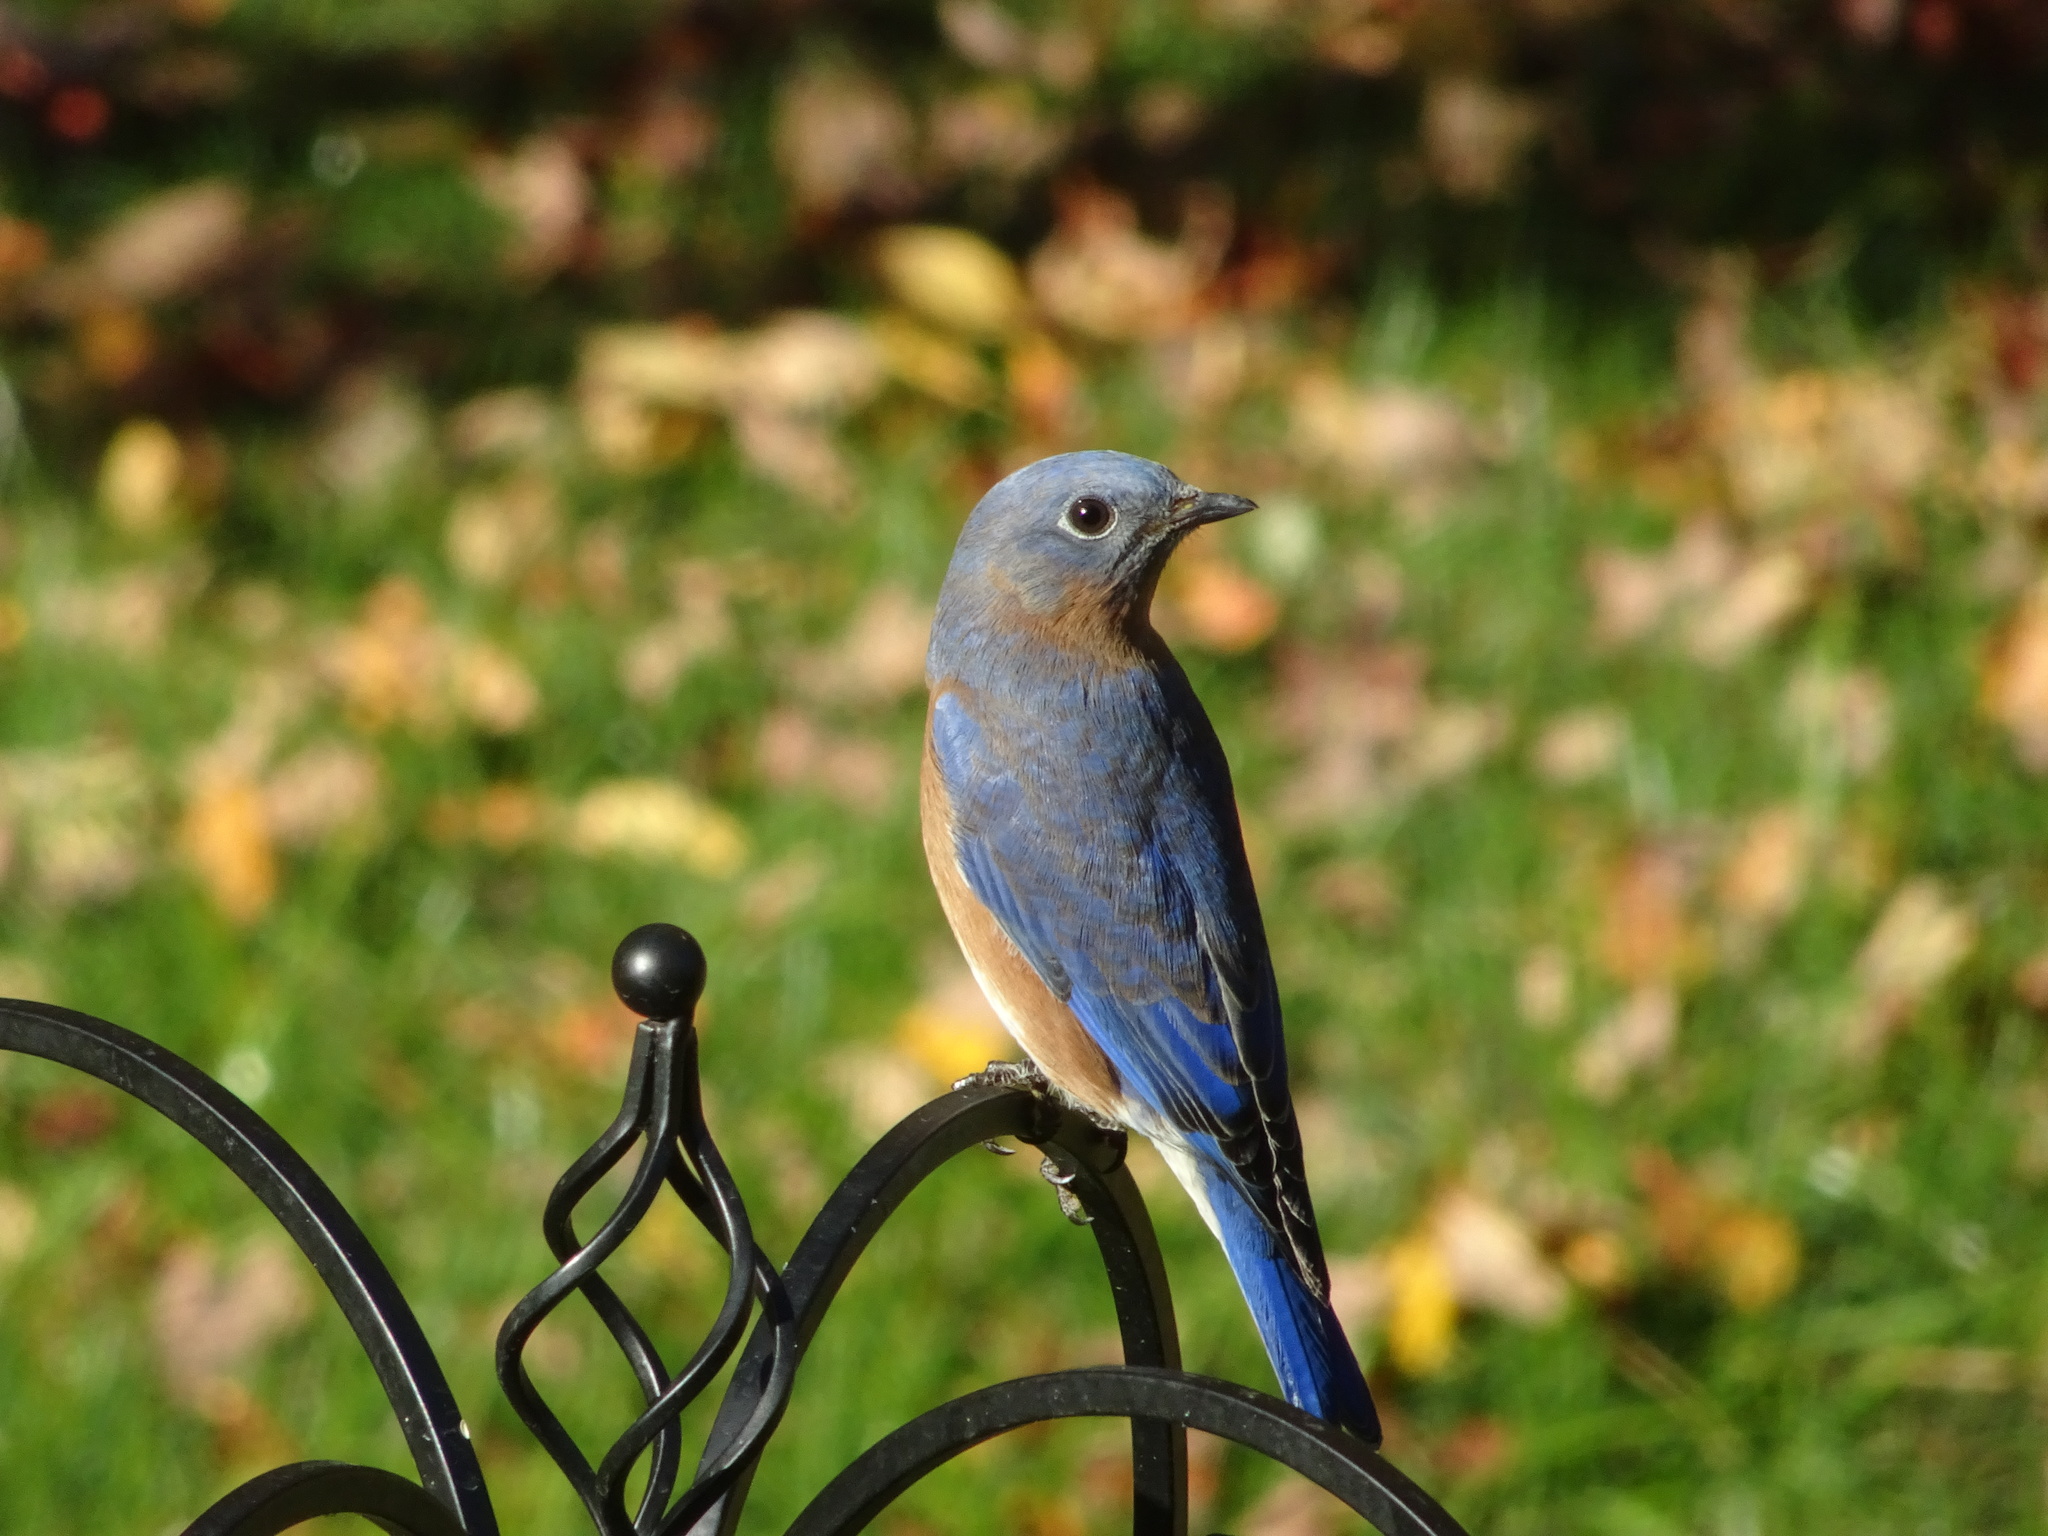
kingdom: Animalia
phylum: Chordata
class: Aves
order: Passeriformes
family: Turdidae
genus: Sialia
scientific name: Sialia sialis
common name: Eastern bluebird
